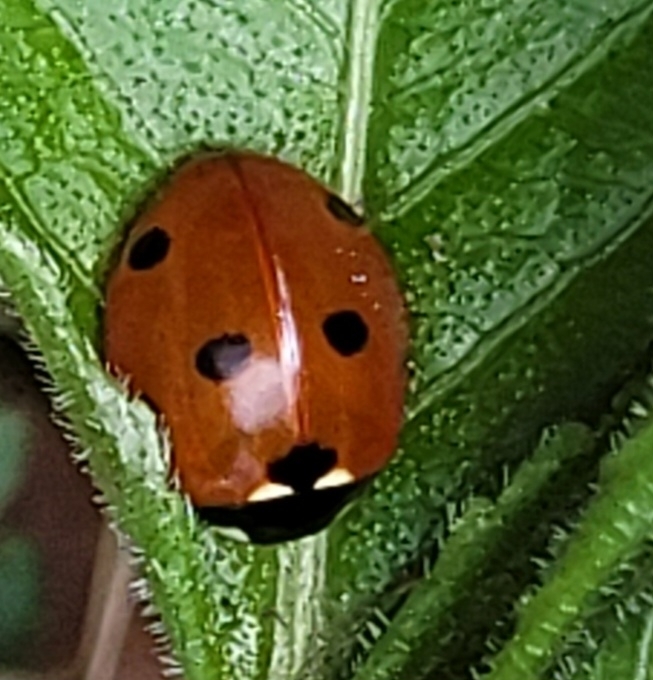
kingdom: Animalia
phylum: Arthropoda
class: Insecta
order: Coleoptera
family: Coccinellidae
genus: Coccinella
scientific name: Coccinella septempunctata
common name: Sevenspotted lady beetle
